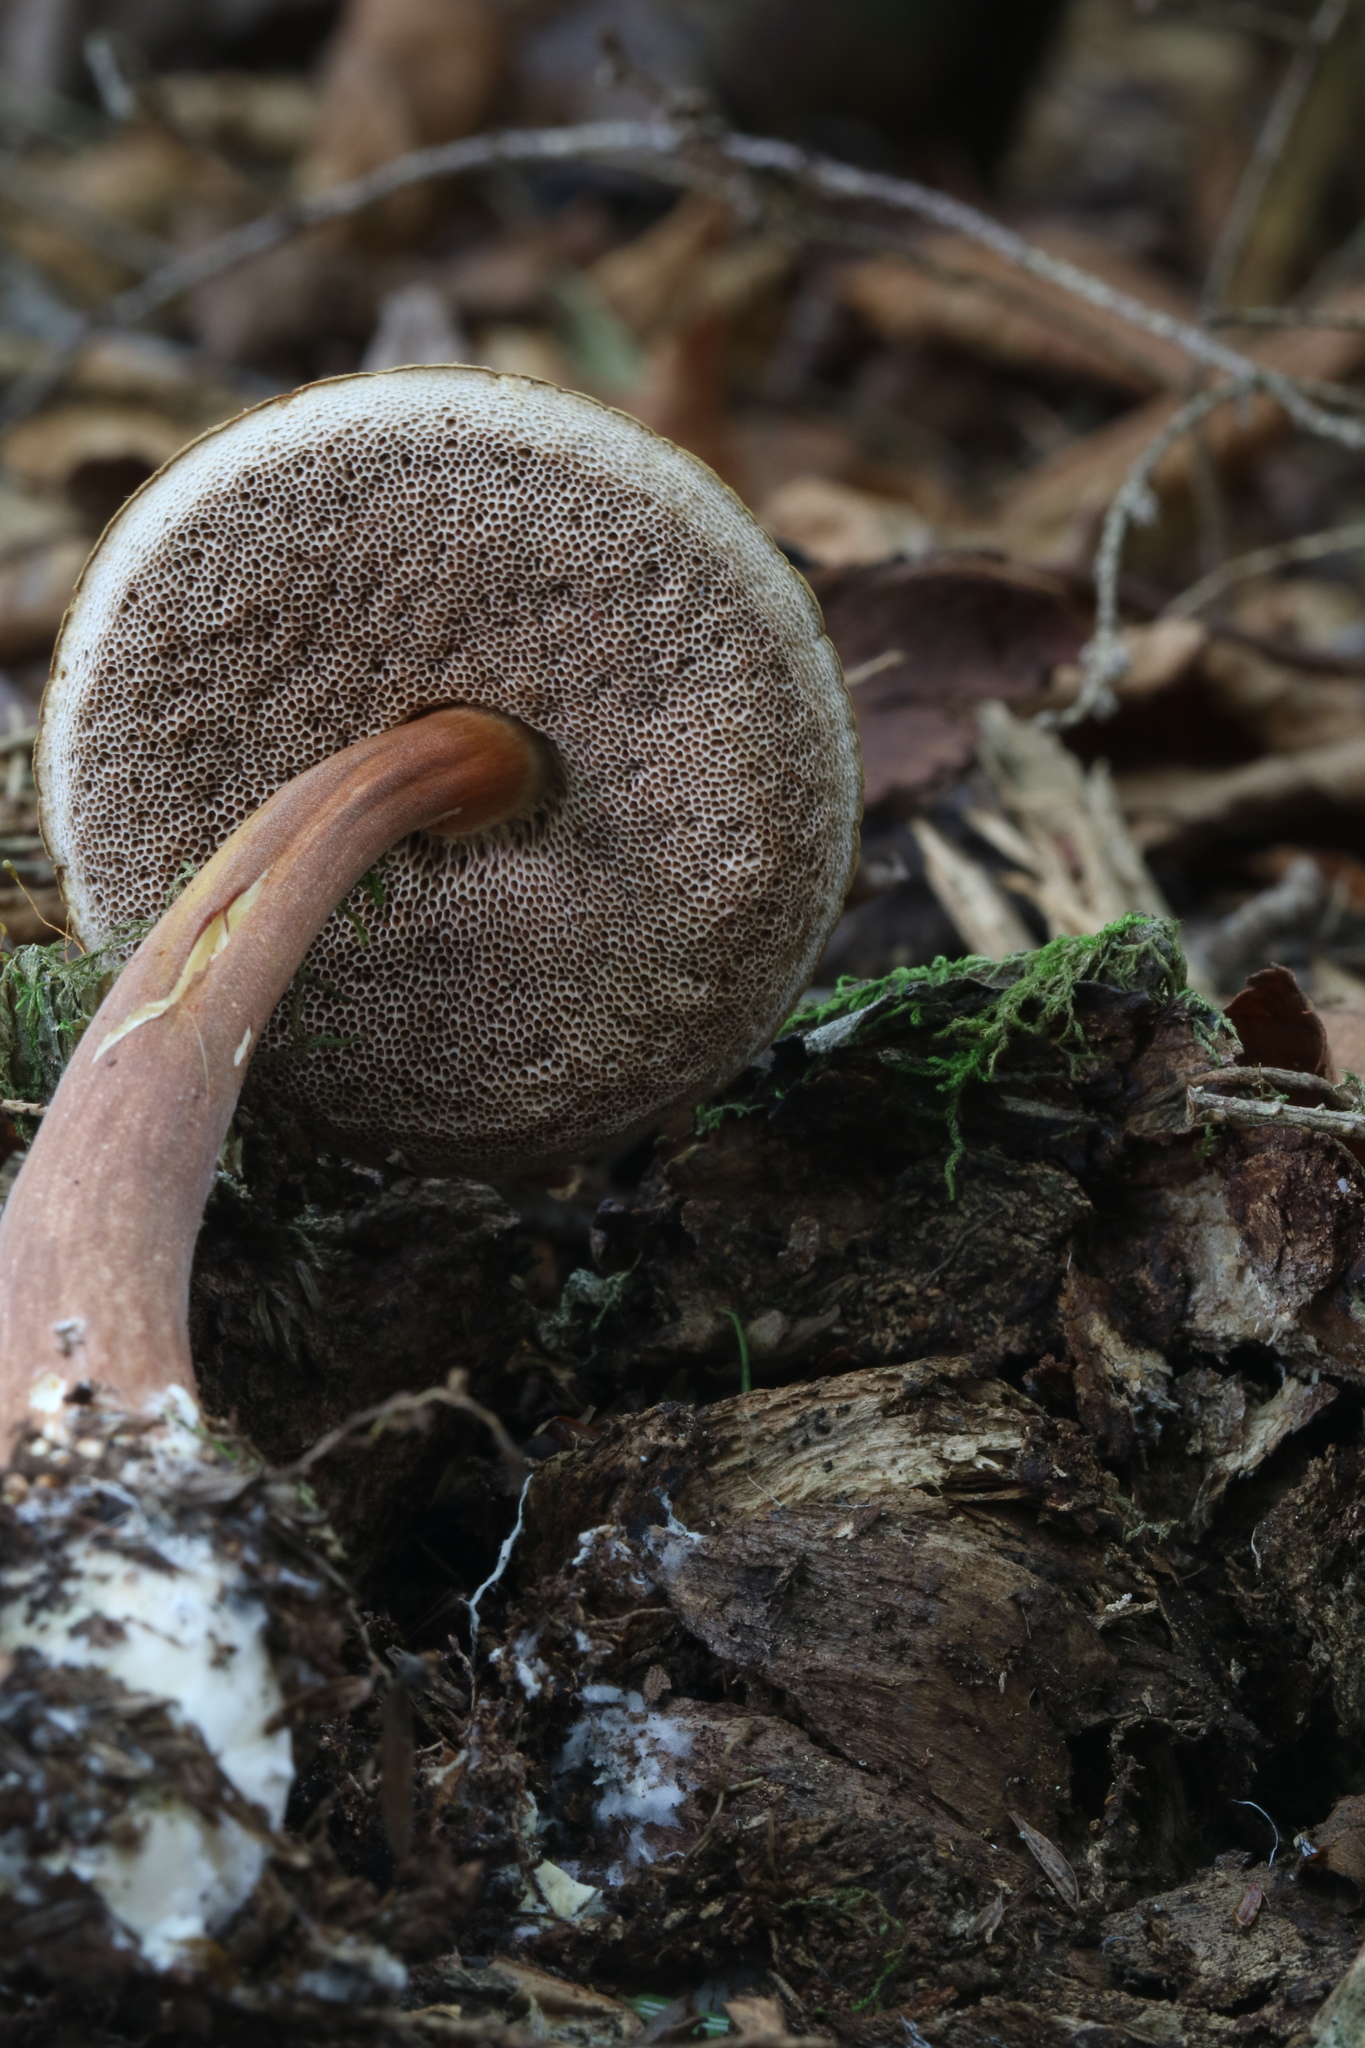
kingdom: Fungi
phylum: Basidiomycota
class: Agaricomycetes
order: Boletales
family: Boletaceae
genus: Austroboletus
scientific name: Austroboletus gracilis
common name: Graceful bolete
